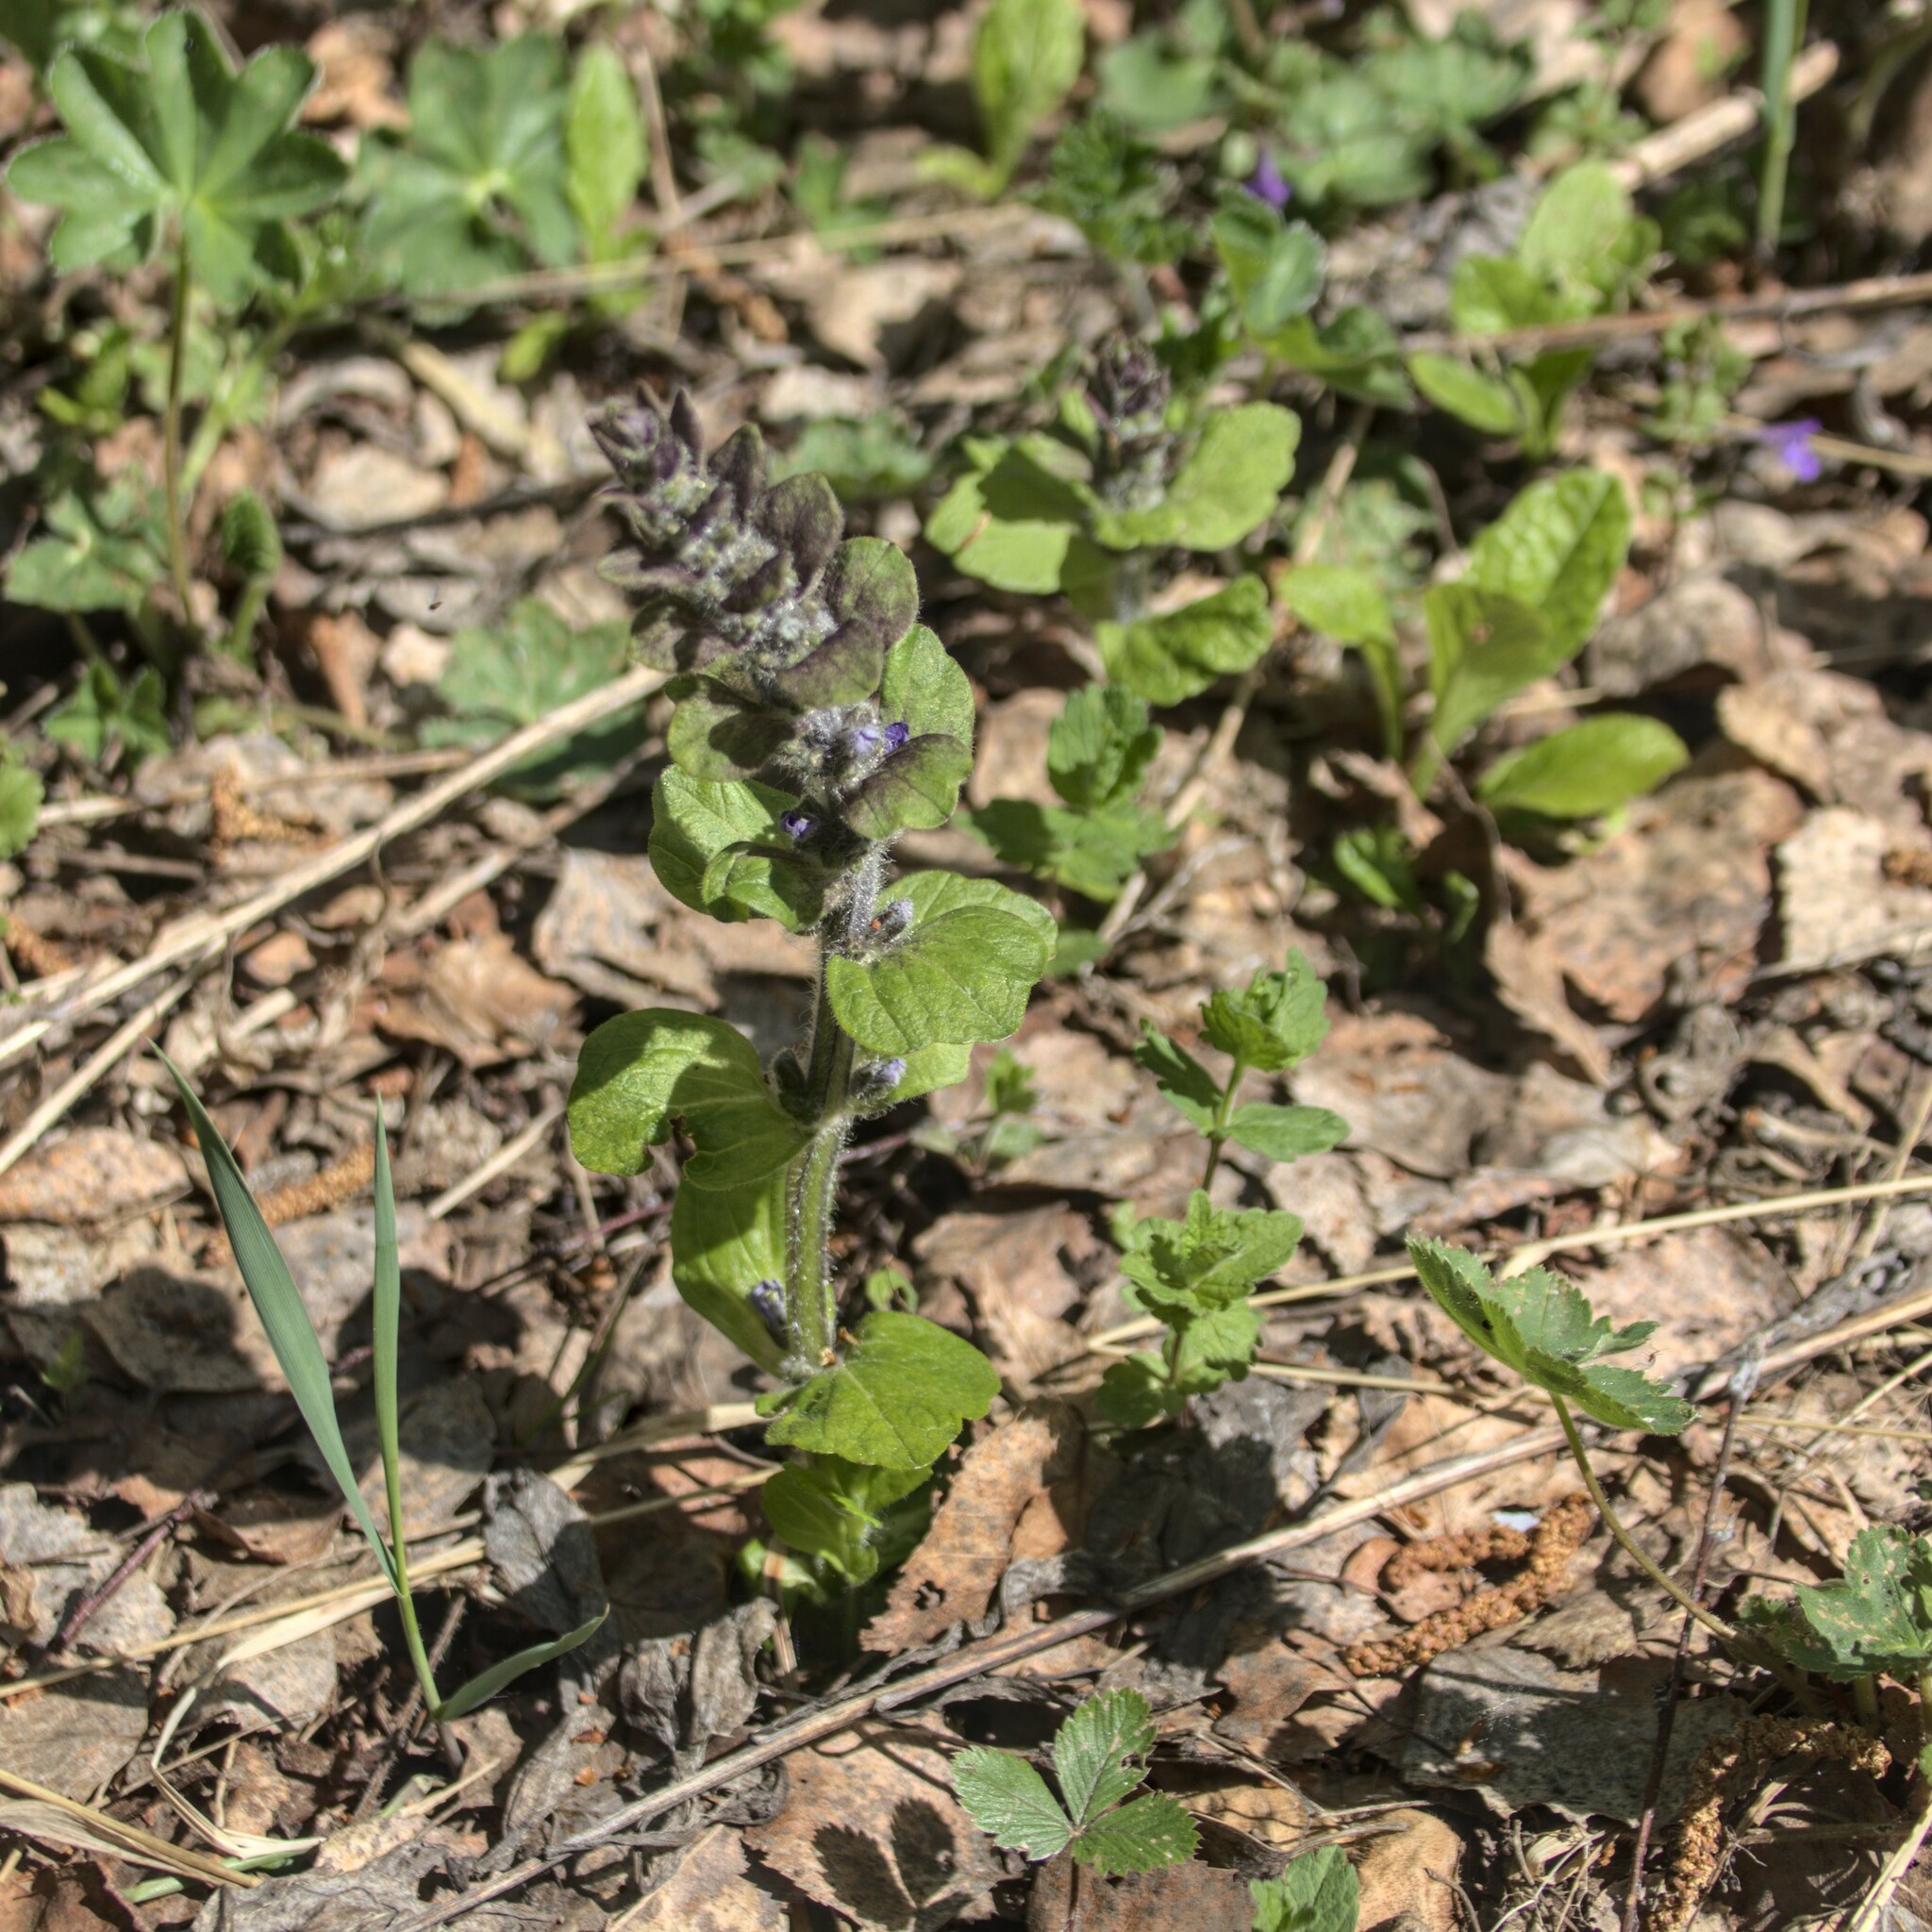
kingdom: Plantae
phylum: Tracheophyta
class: Magnoliopsida
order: Lamiales
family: Lamiaceae
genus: Ajuga
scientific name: Ajuga reptans
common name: Bugle
